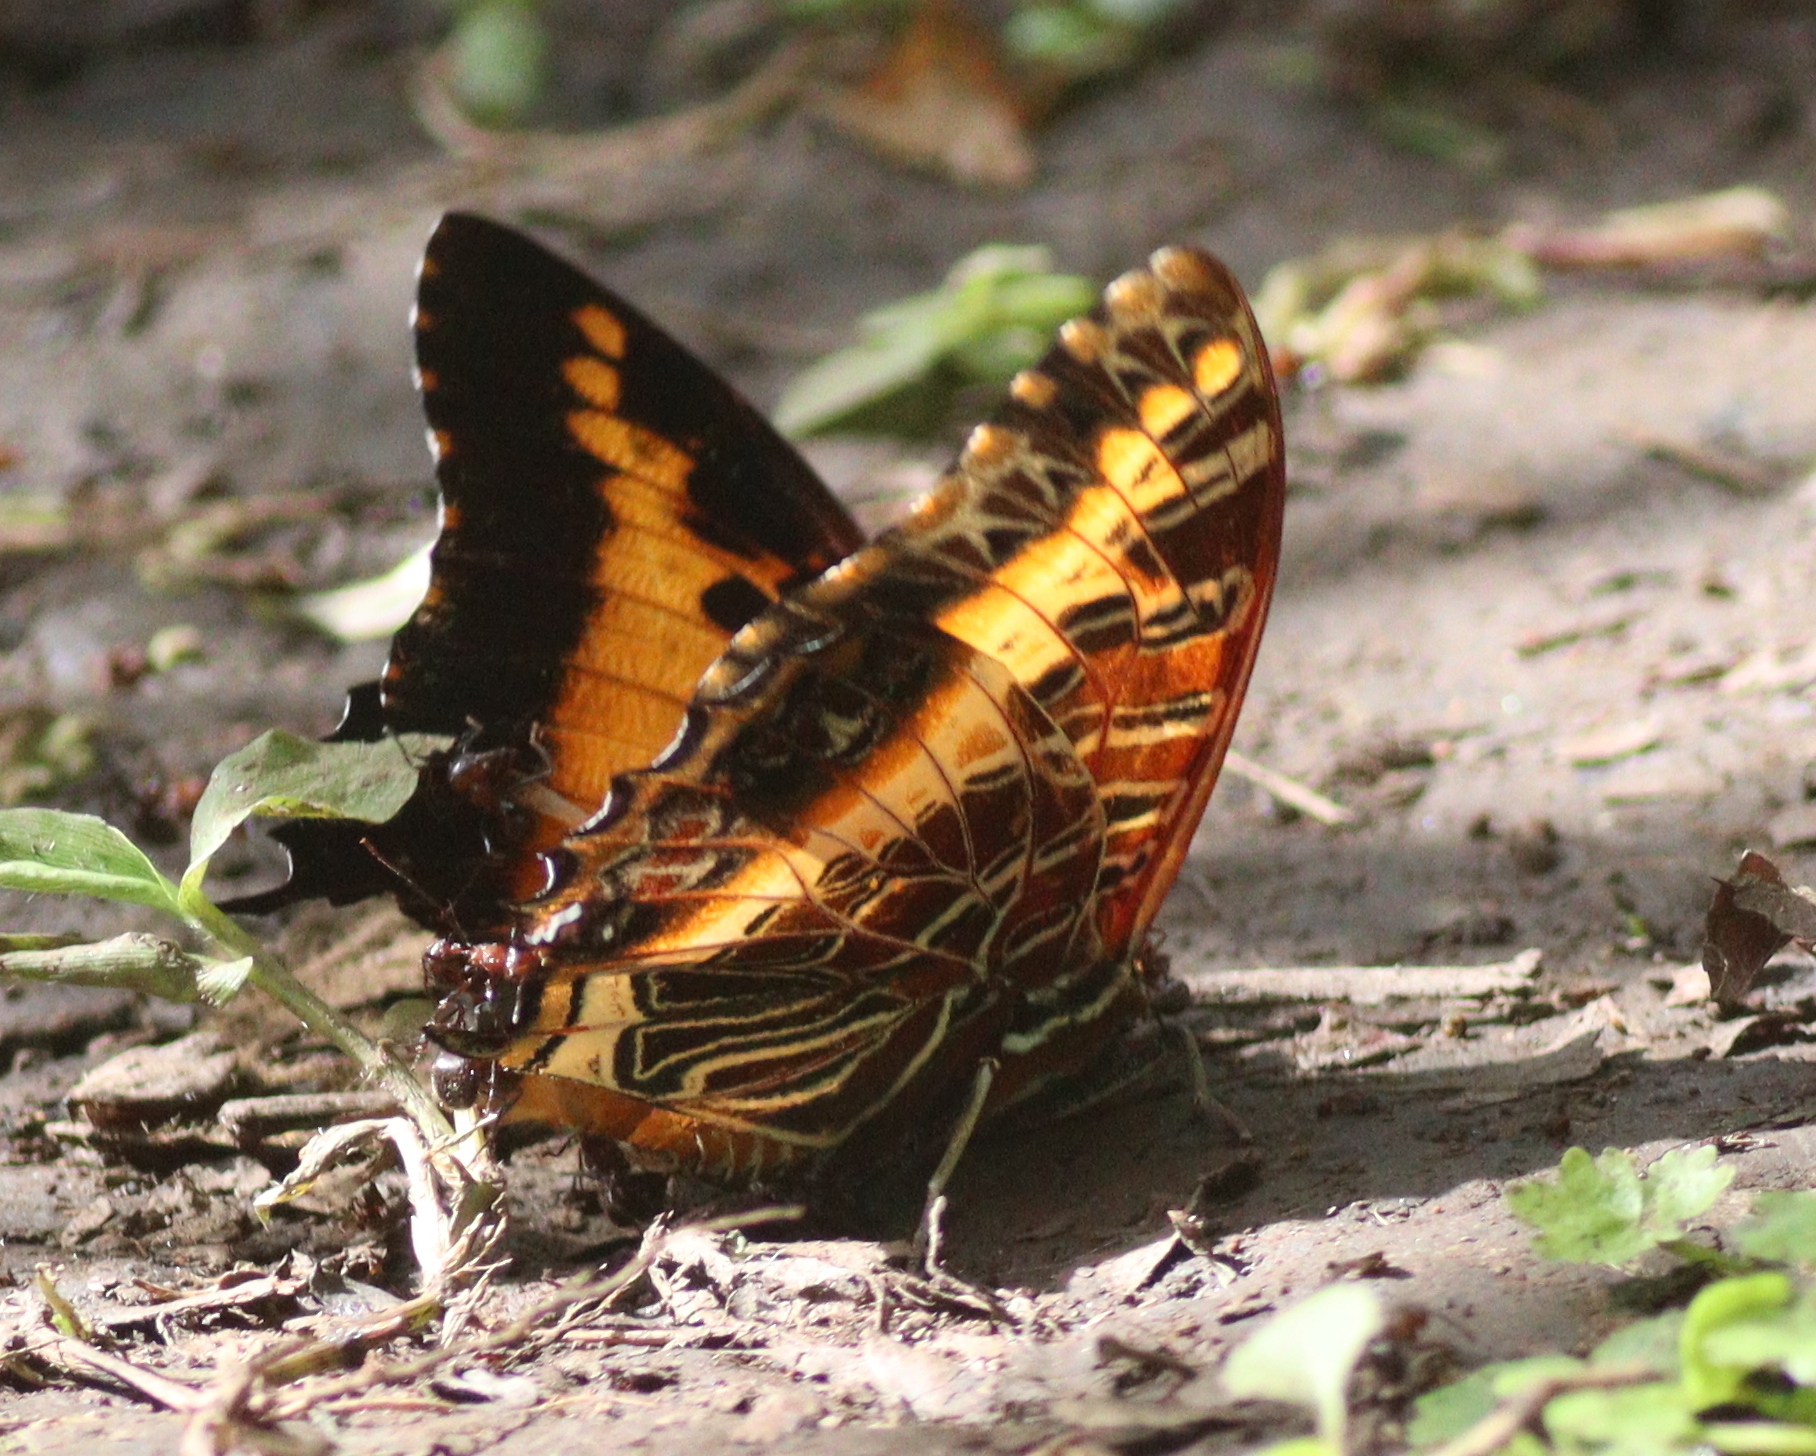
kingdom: Animalia
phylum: Arthropoda
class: Insecta
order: Lepidoptera
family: Nymphalidae
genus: Charaxes
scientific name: Charaxes pollux
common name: Black-bordered charaxes
